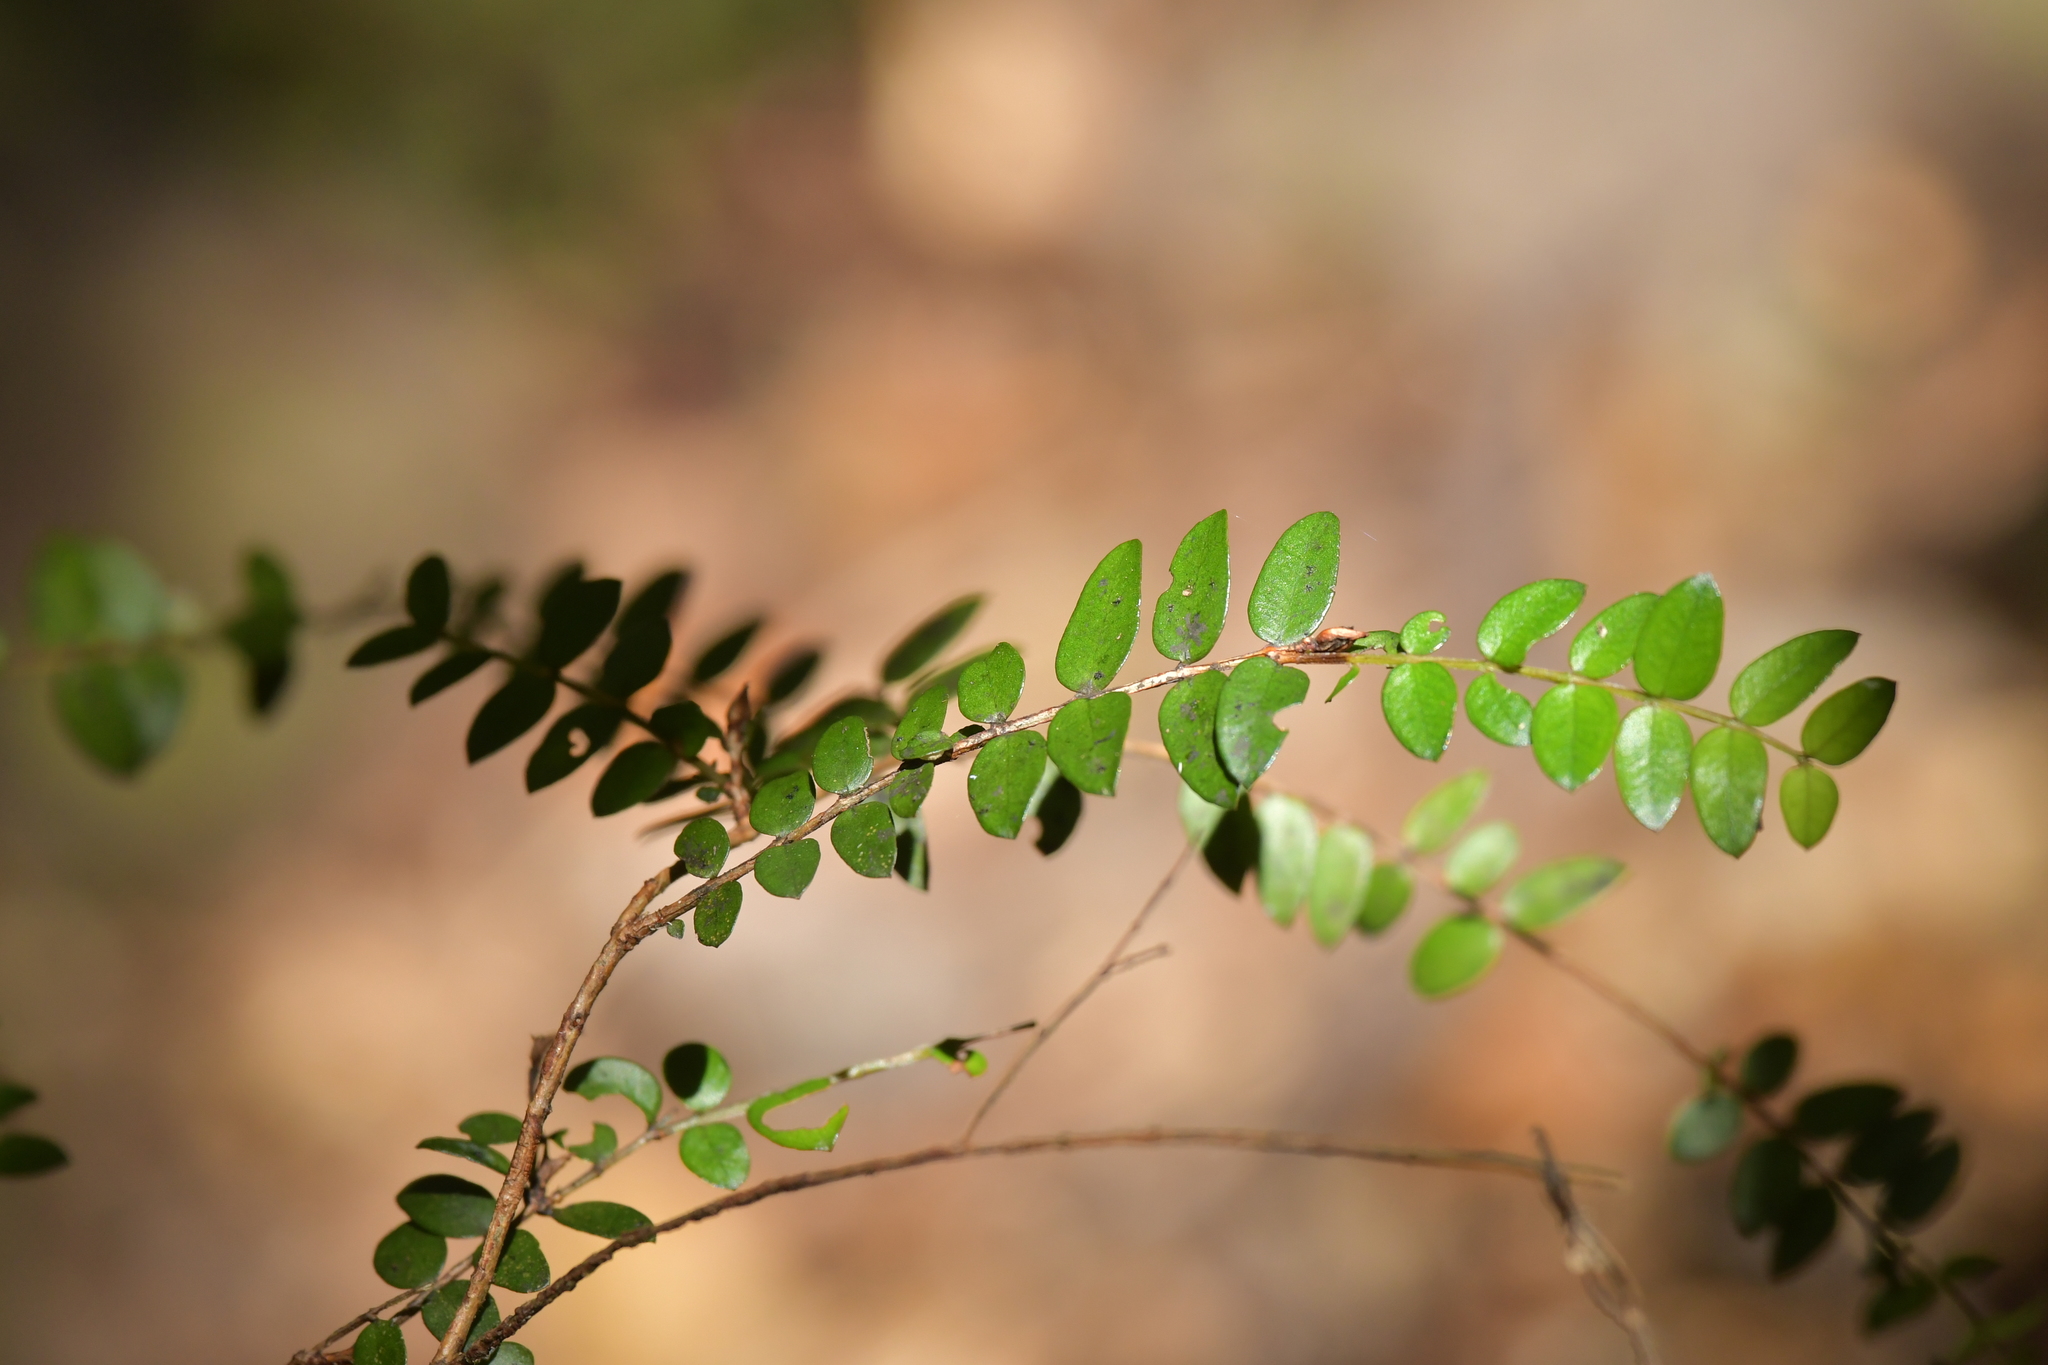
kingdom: Plantae
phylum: Tracheophyta
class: Magnoliopsida
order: Myrtales
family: Myrtaceae
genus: Metrosideros
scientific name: Metrosideros diffusa
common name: Small ratavine
